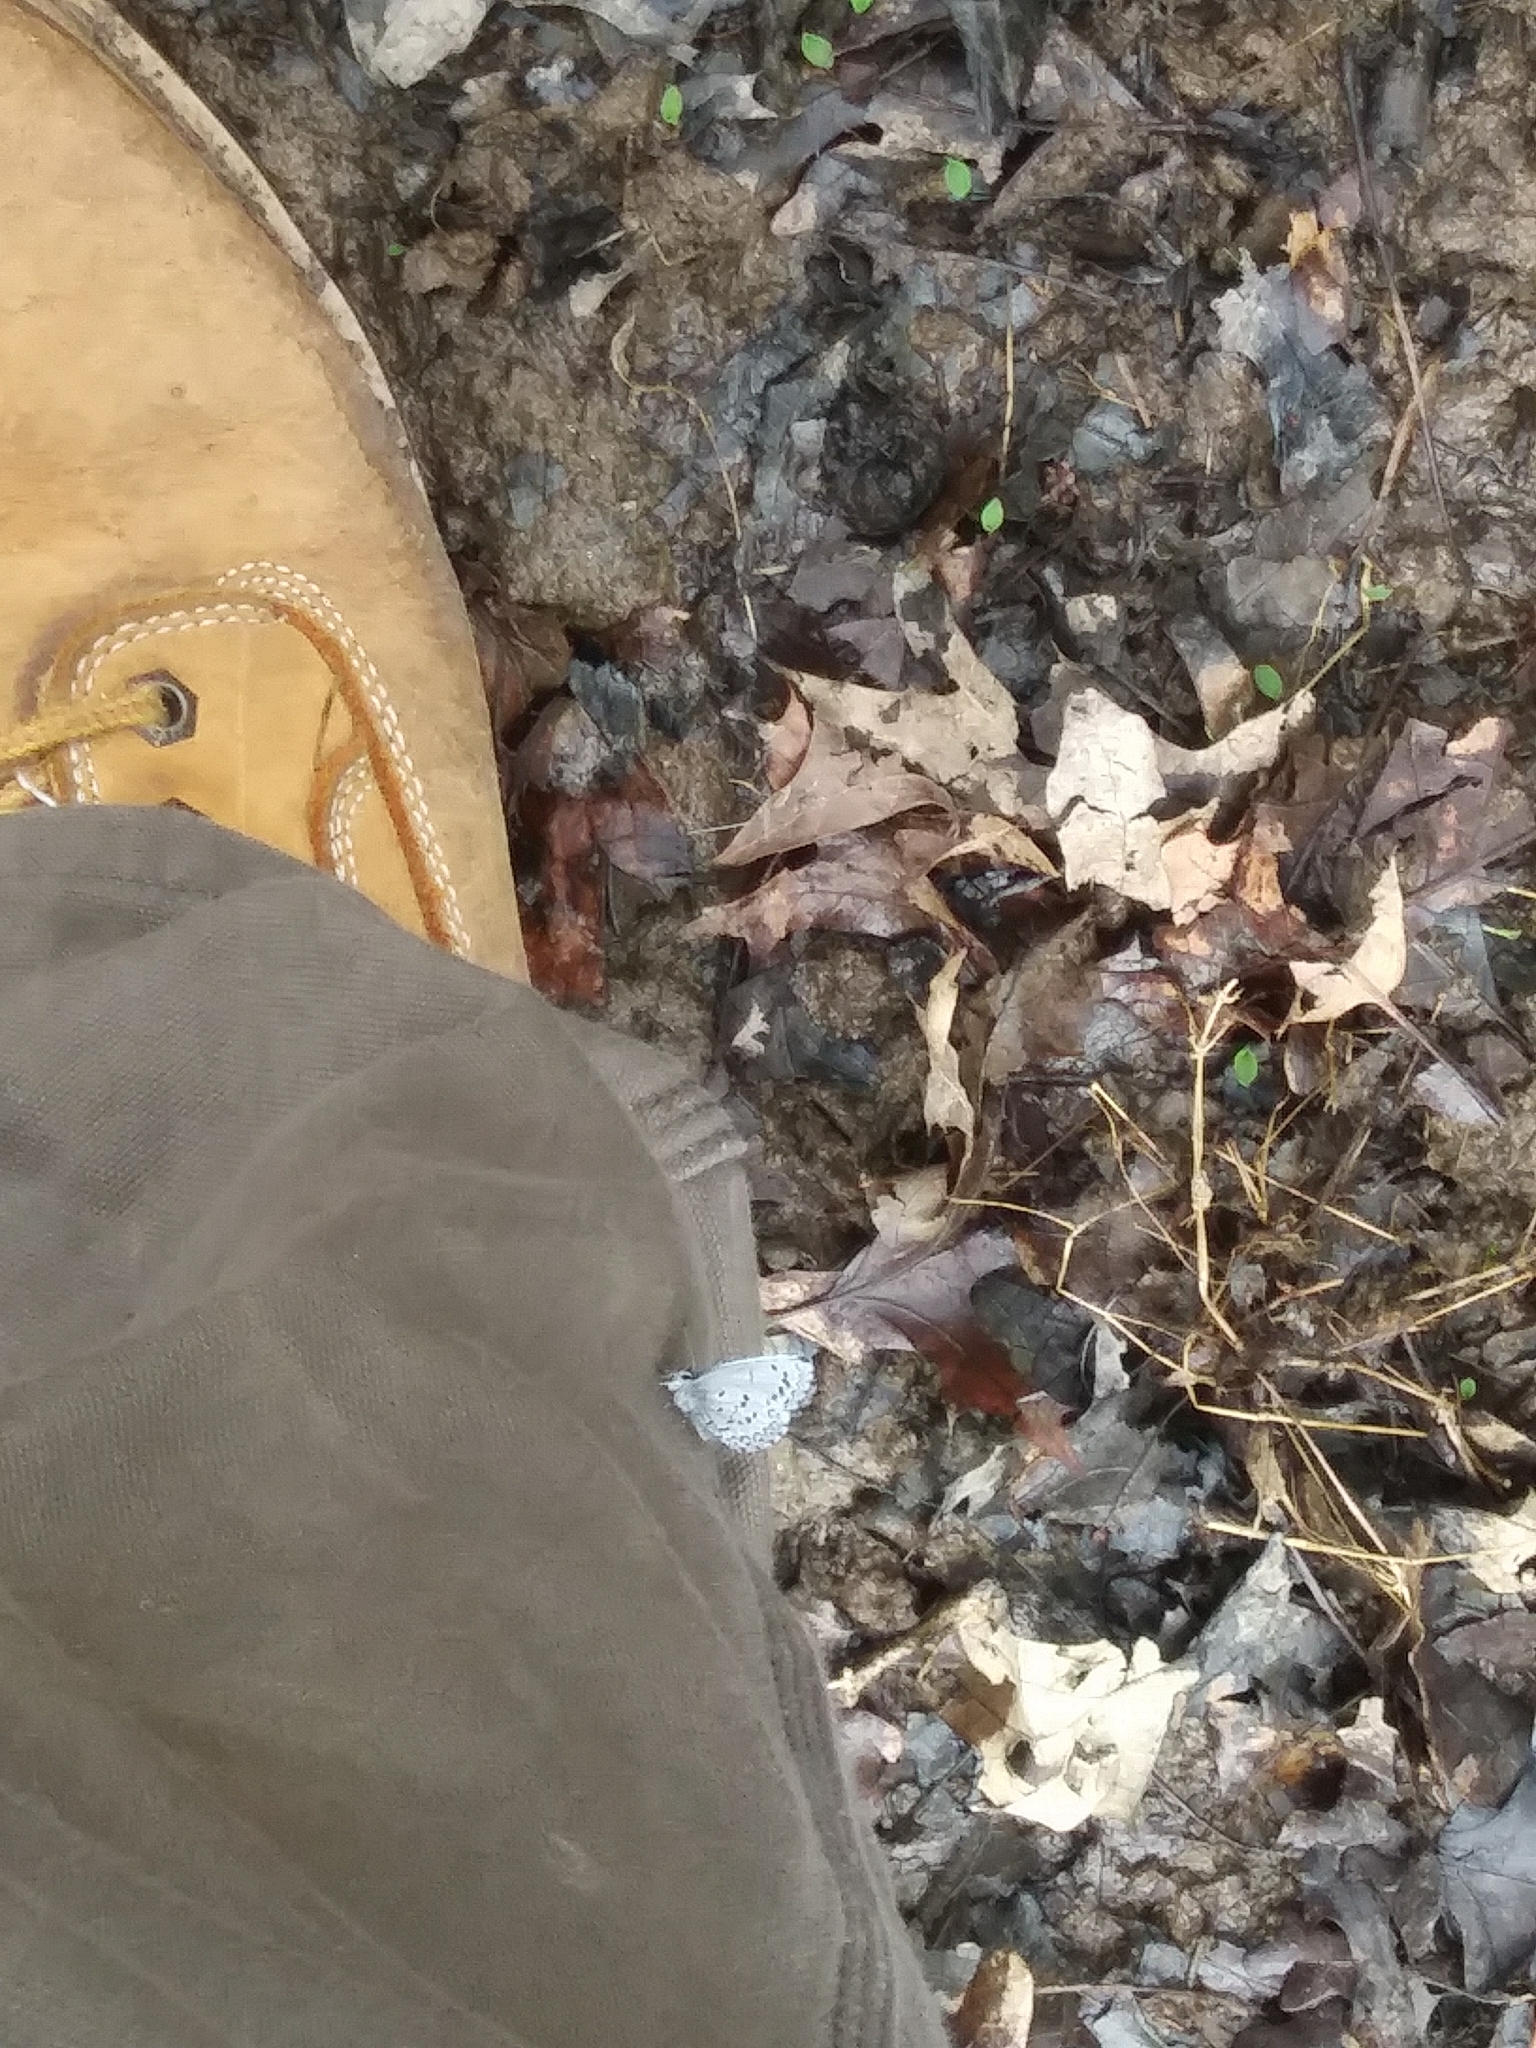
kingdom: Animalia
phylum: Arthropoda
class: Insecta
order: Lepidoptera
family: Lycaenidae
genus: Celastrina
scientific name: Celastrina ladon
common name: Spring azure
